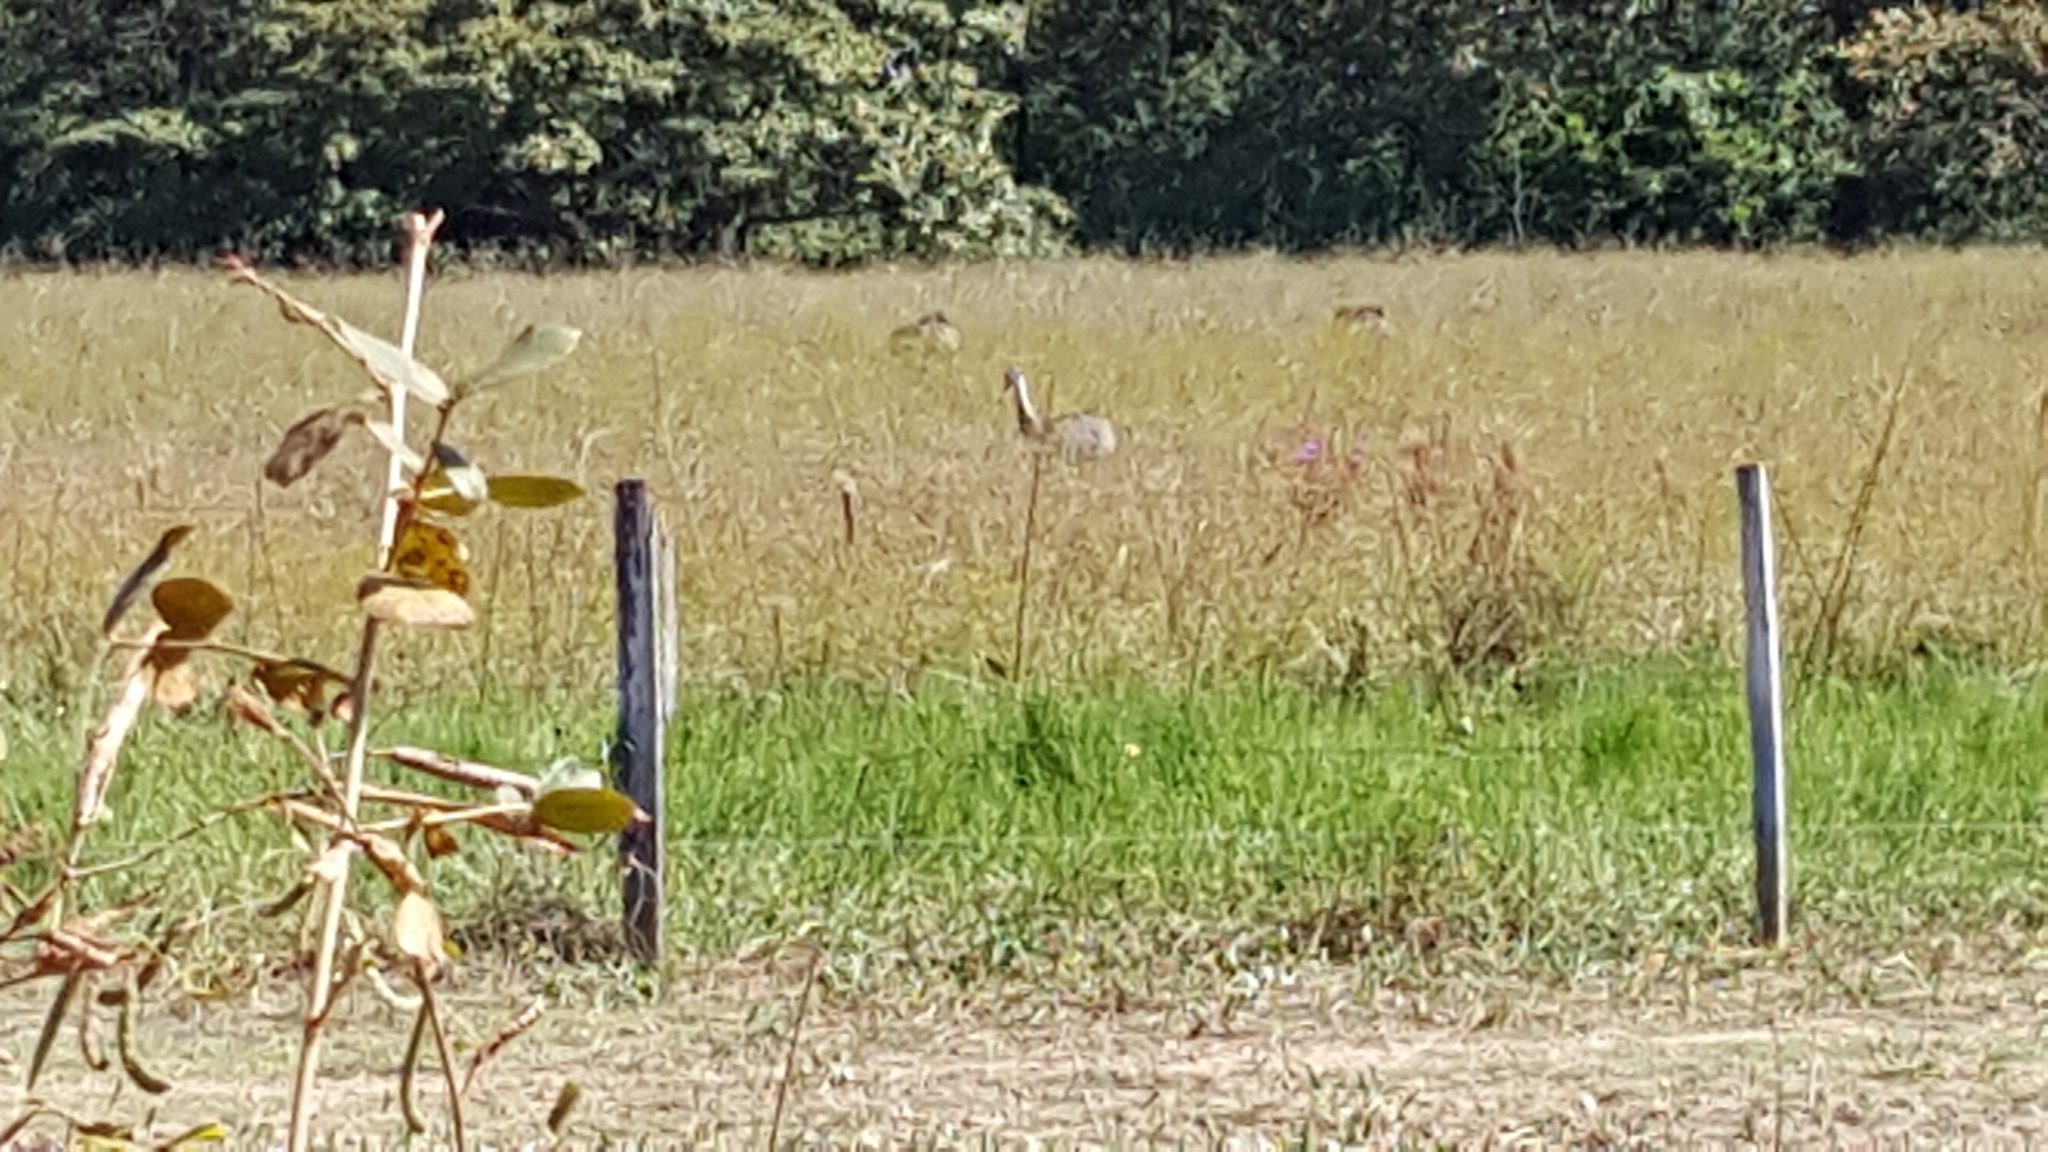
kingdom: Animalia
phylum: Chordata
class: Aves
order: Rheiformes
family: Rheidae
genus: Rhea
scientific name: Rhea americana
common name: Greater rhea
